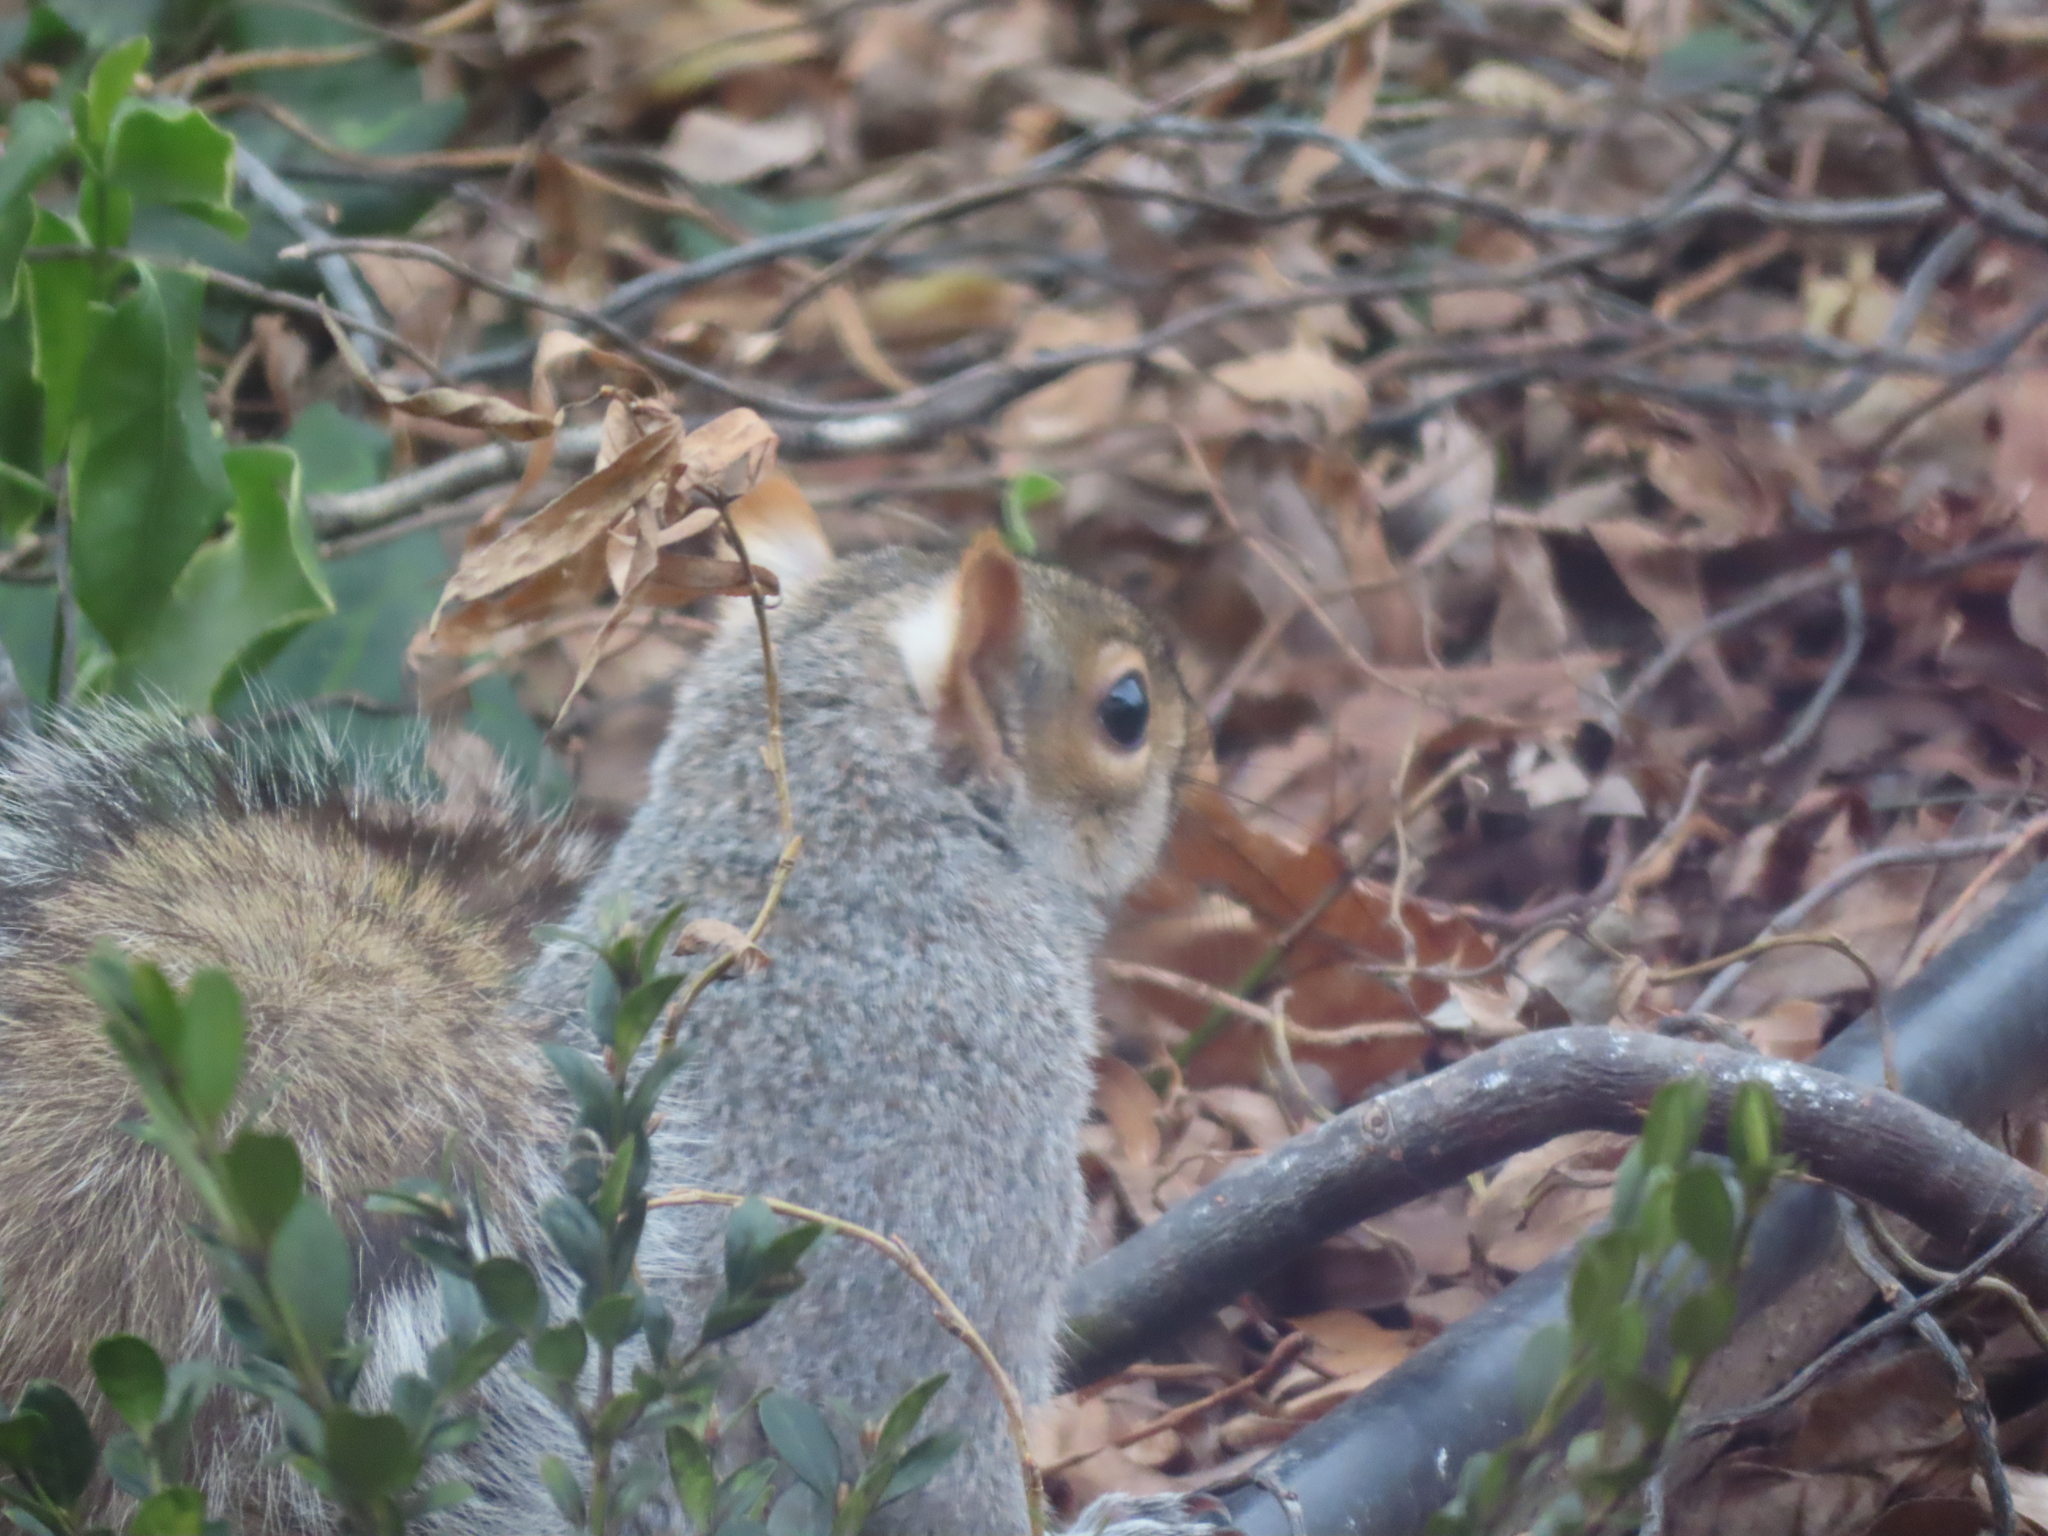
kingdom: Animalia
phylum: Chordata
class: Mammalia
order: Rodentia
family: Sciuridae
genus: Sciurus
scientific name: Sciurus carolinensis
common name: Eastern gray squirrel
